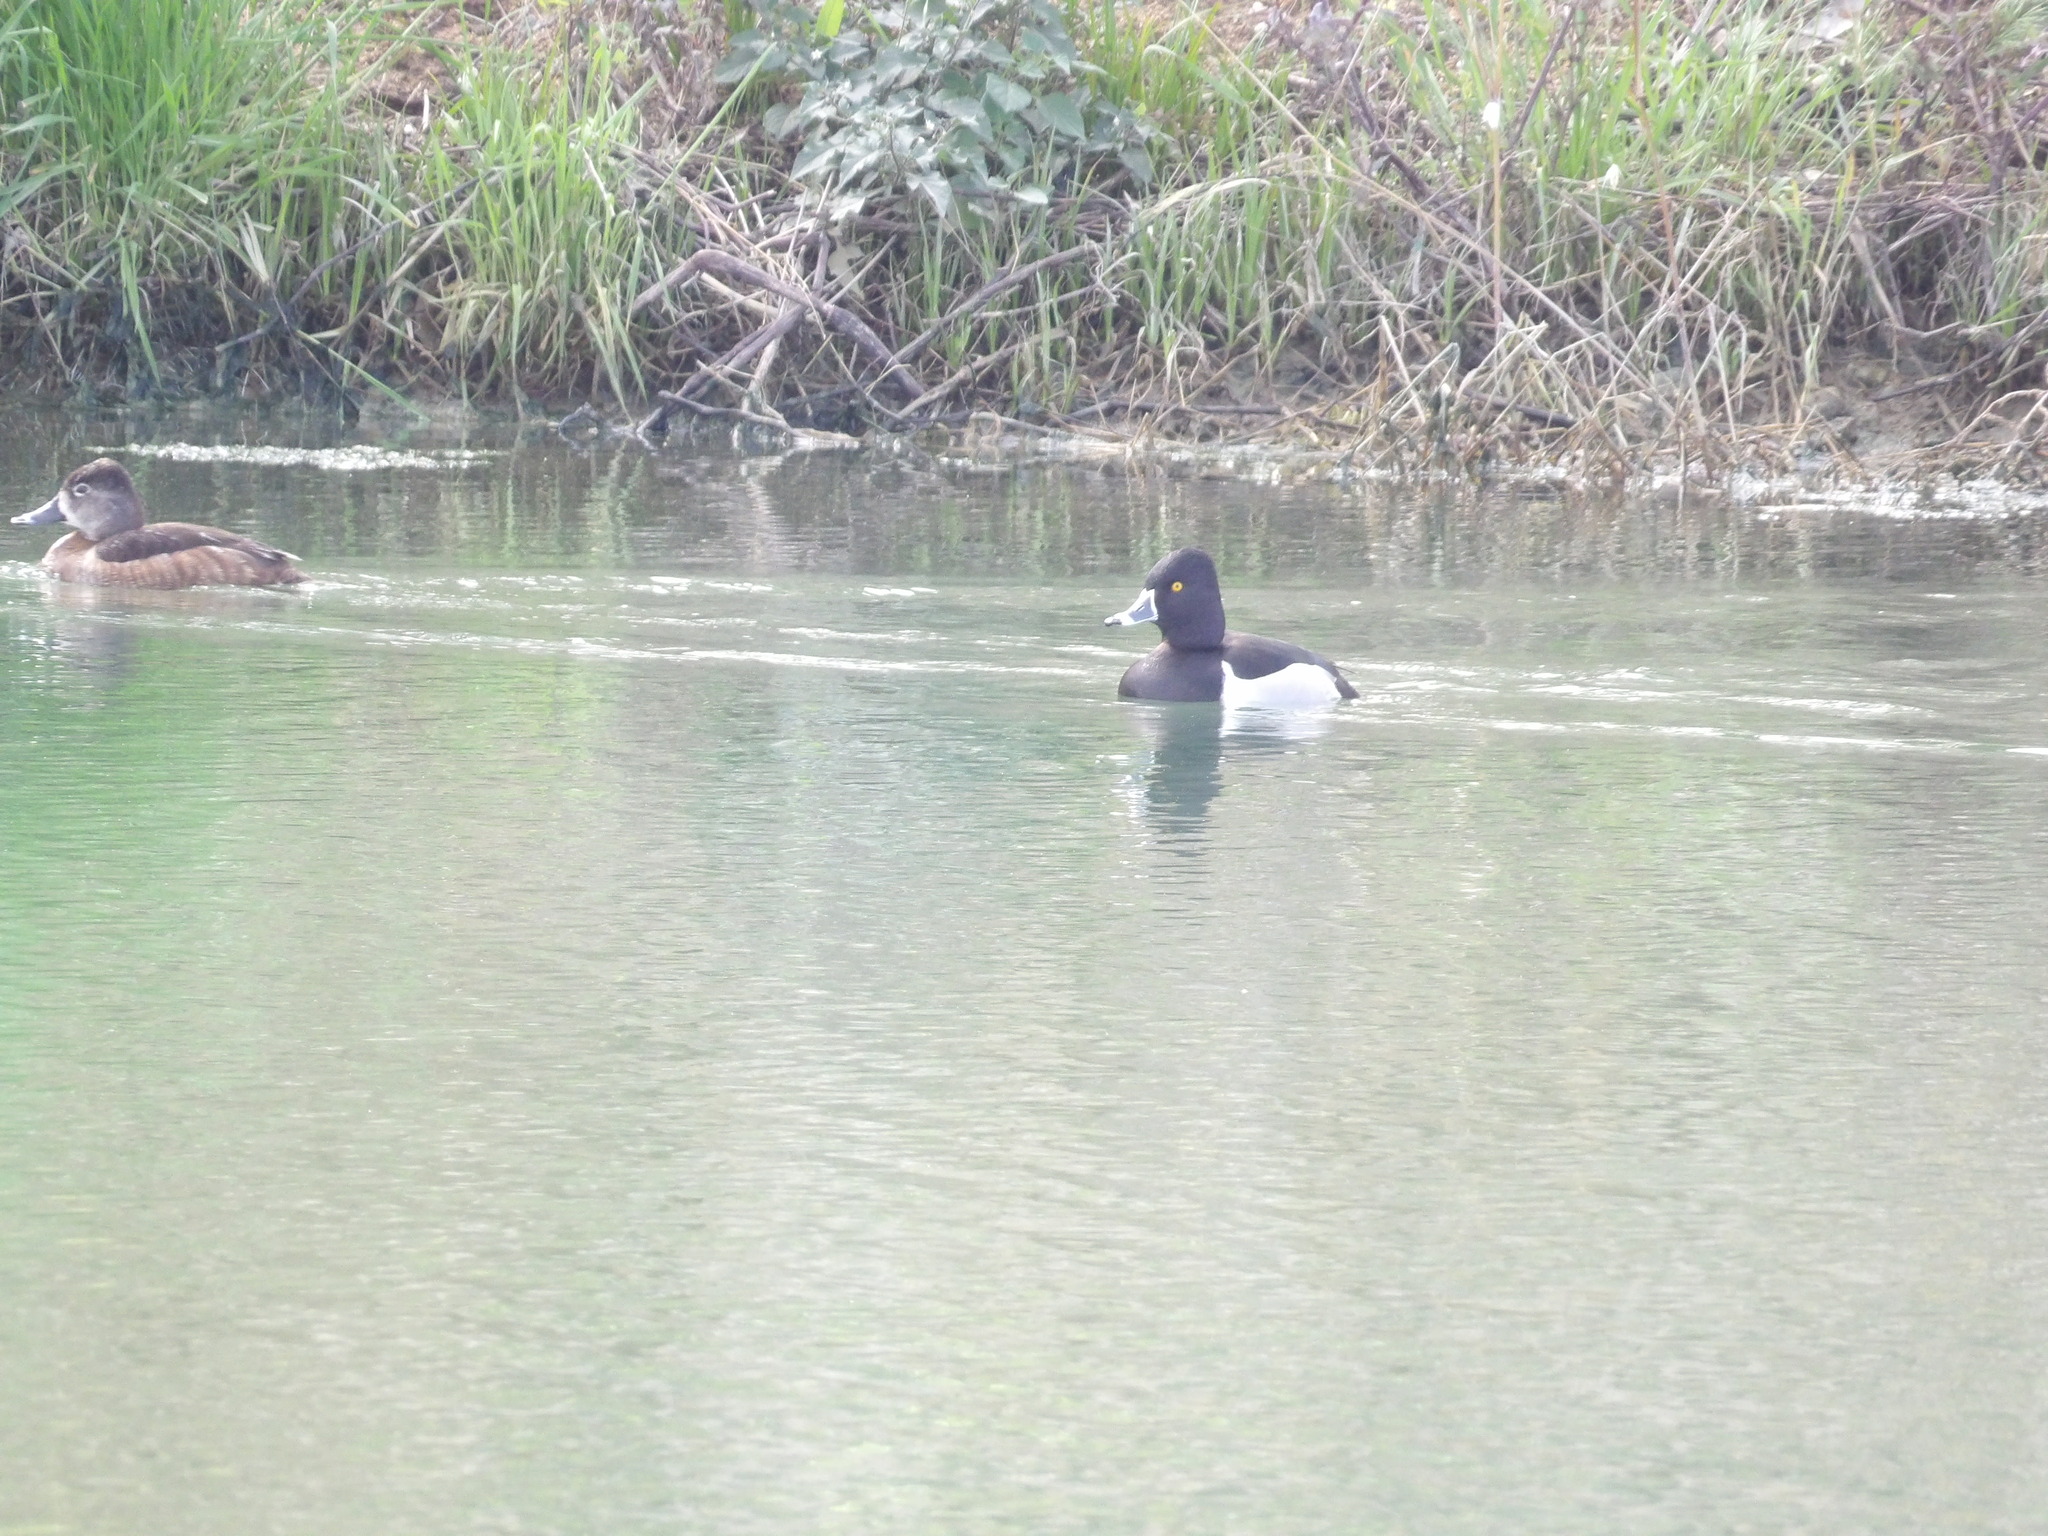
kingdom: Animalia
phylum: Chordata
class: Aves
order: Anseriformes
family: Anatidae
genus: Aythya
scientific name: Aythya collaris
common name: Ring-necked duck
